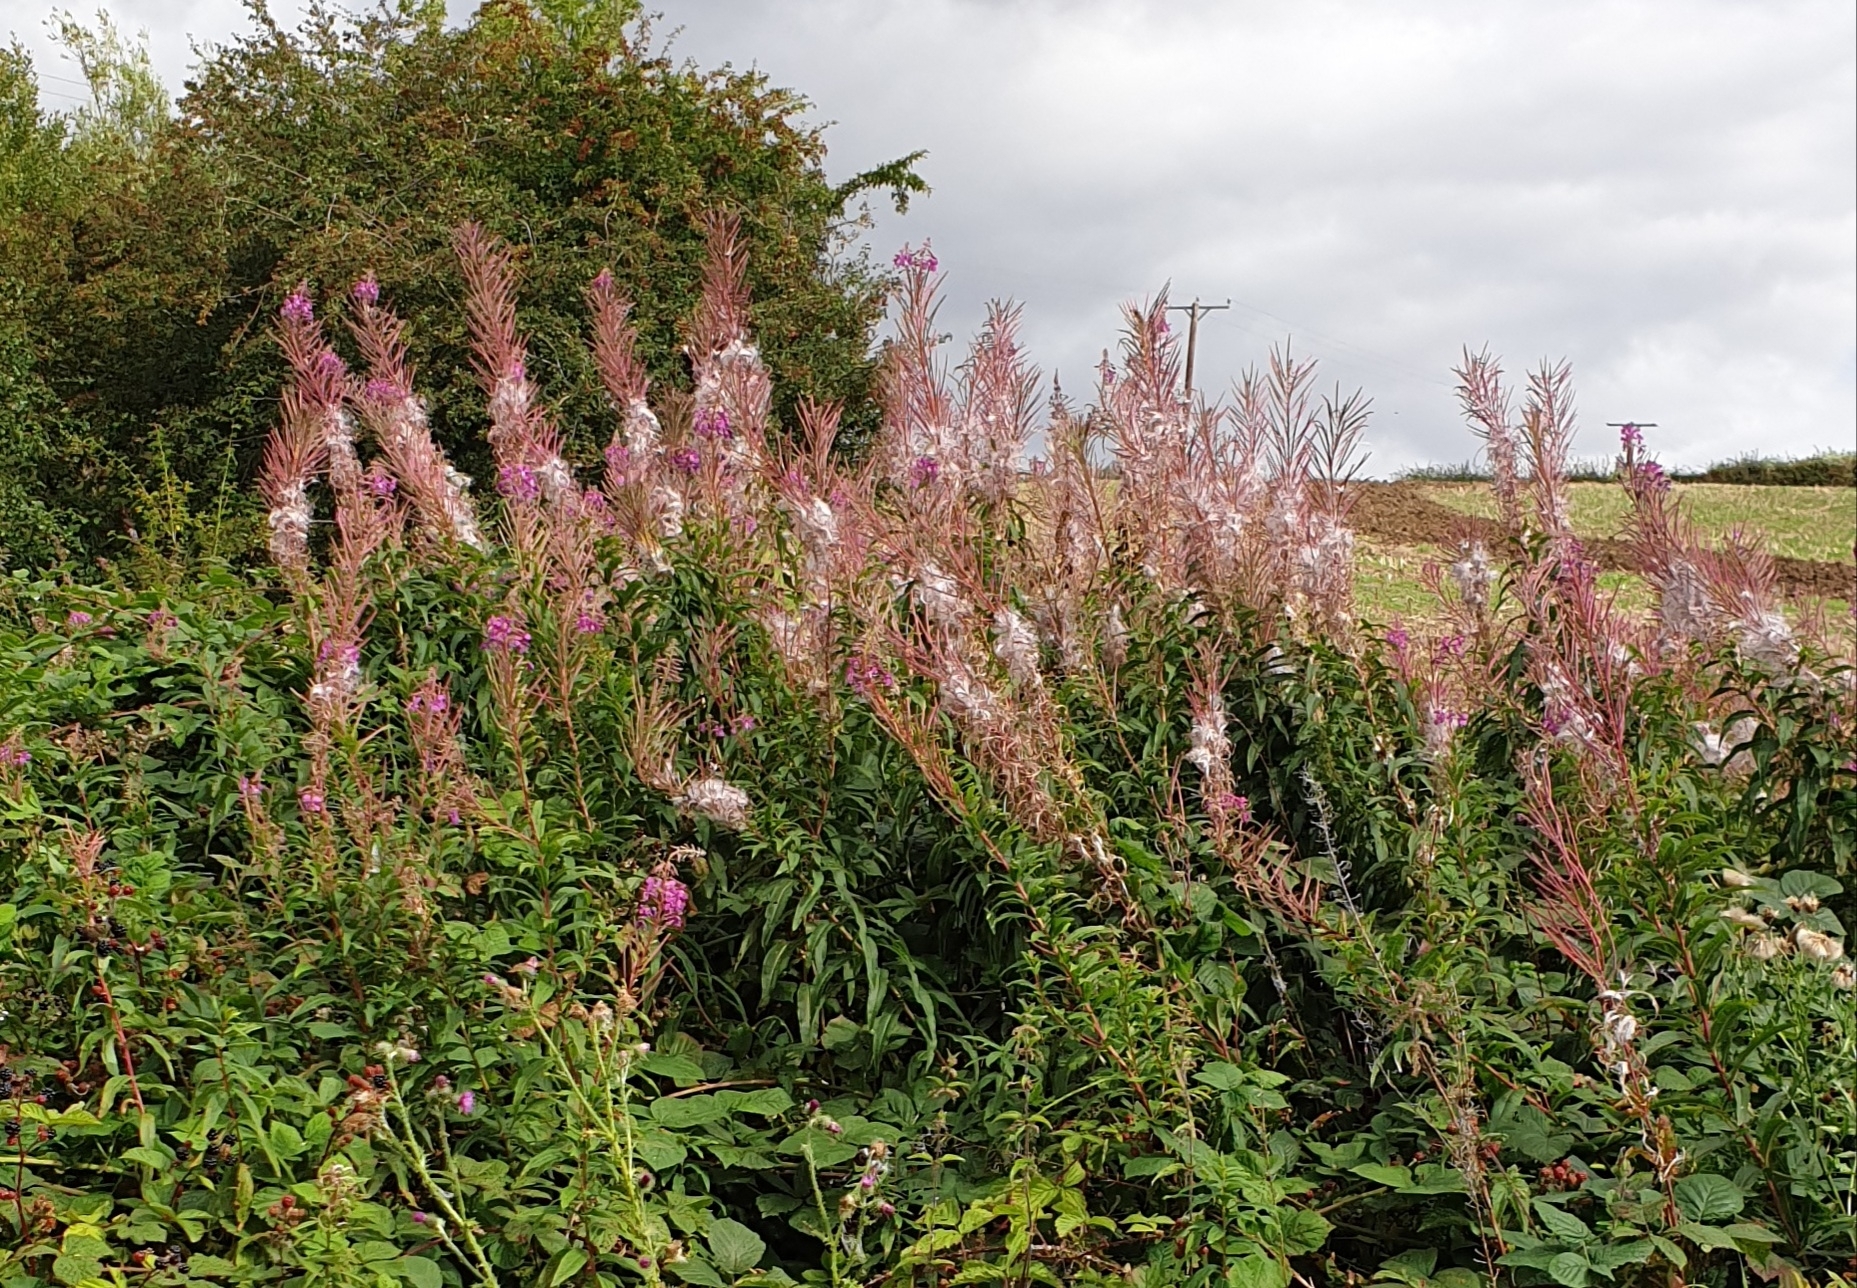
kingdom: Plantae
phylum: Tracheophyta
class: Magnoliopsida
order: Myrtales
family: Onagraceae
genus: Chamaenerion
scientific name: Chamaenerion angustifolium
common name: Fireweed
